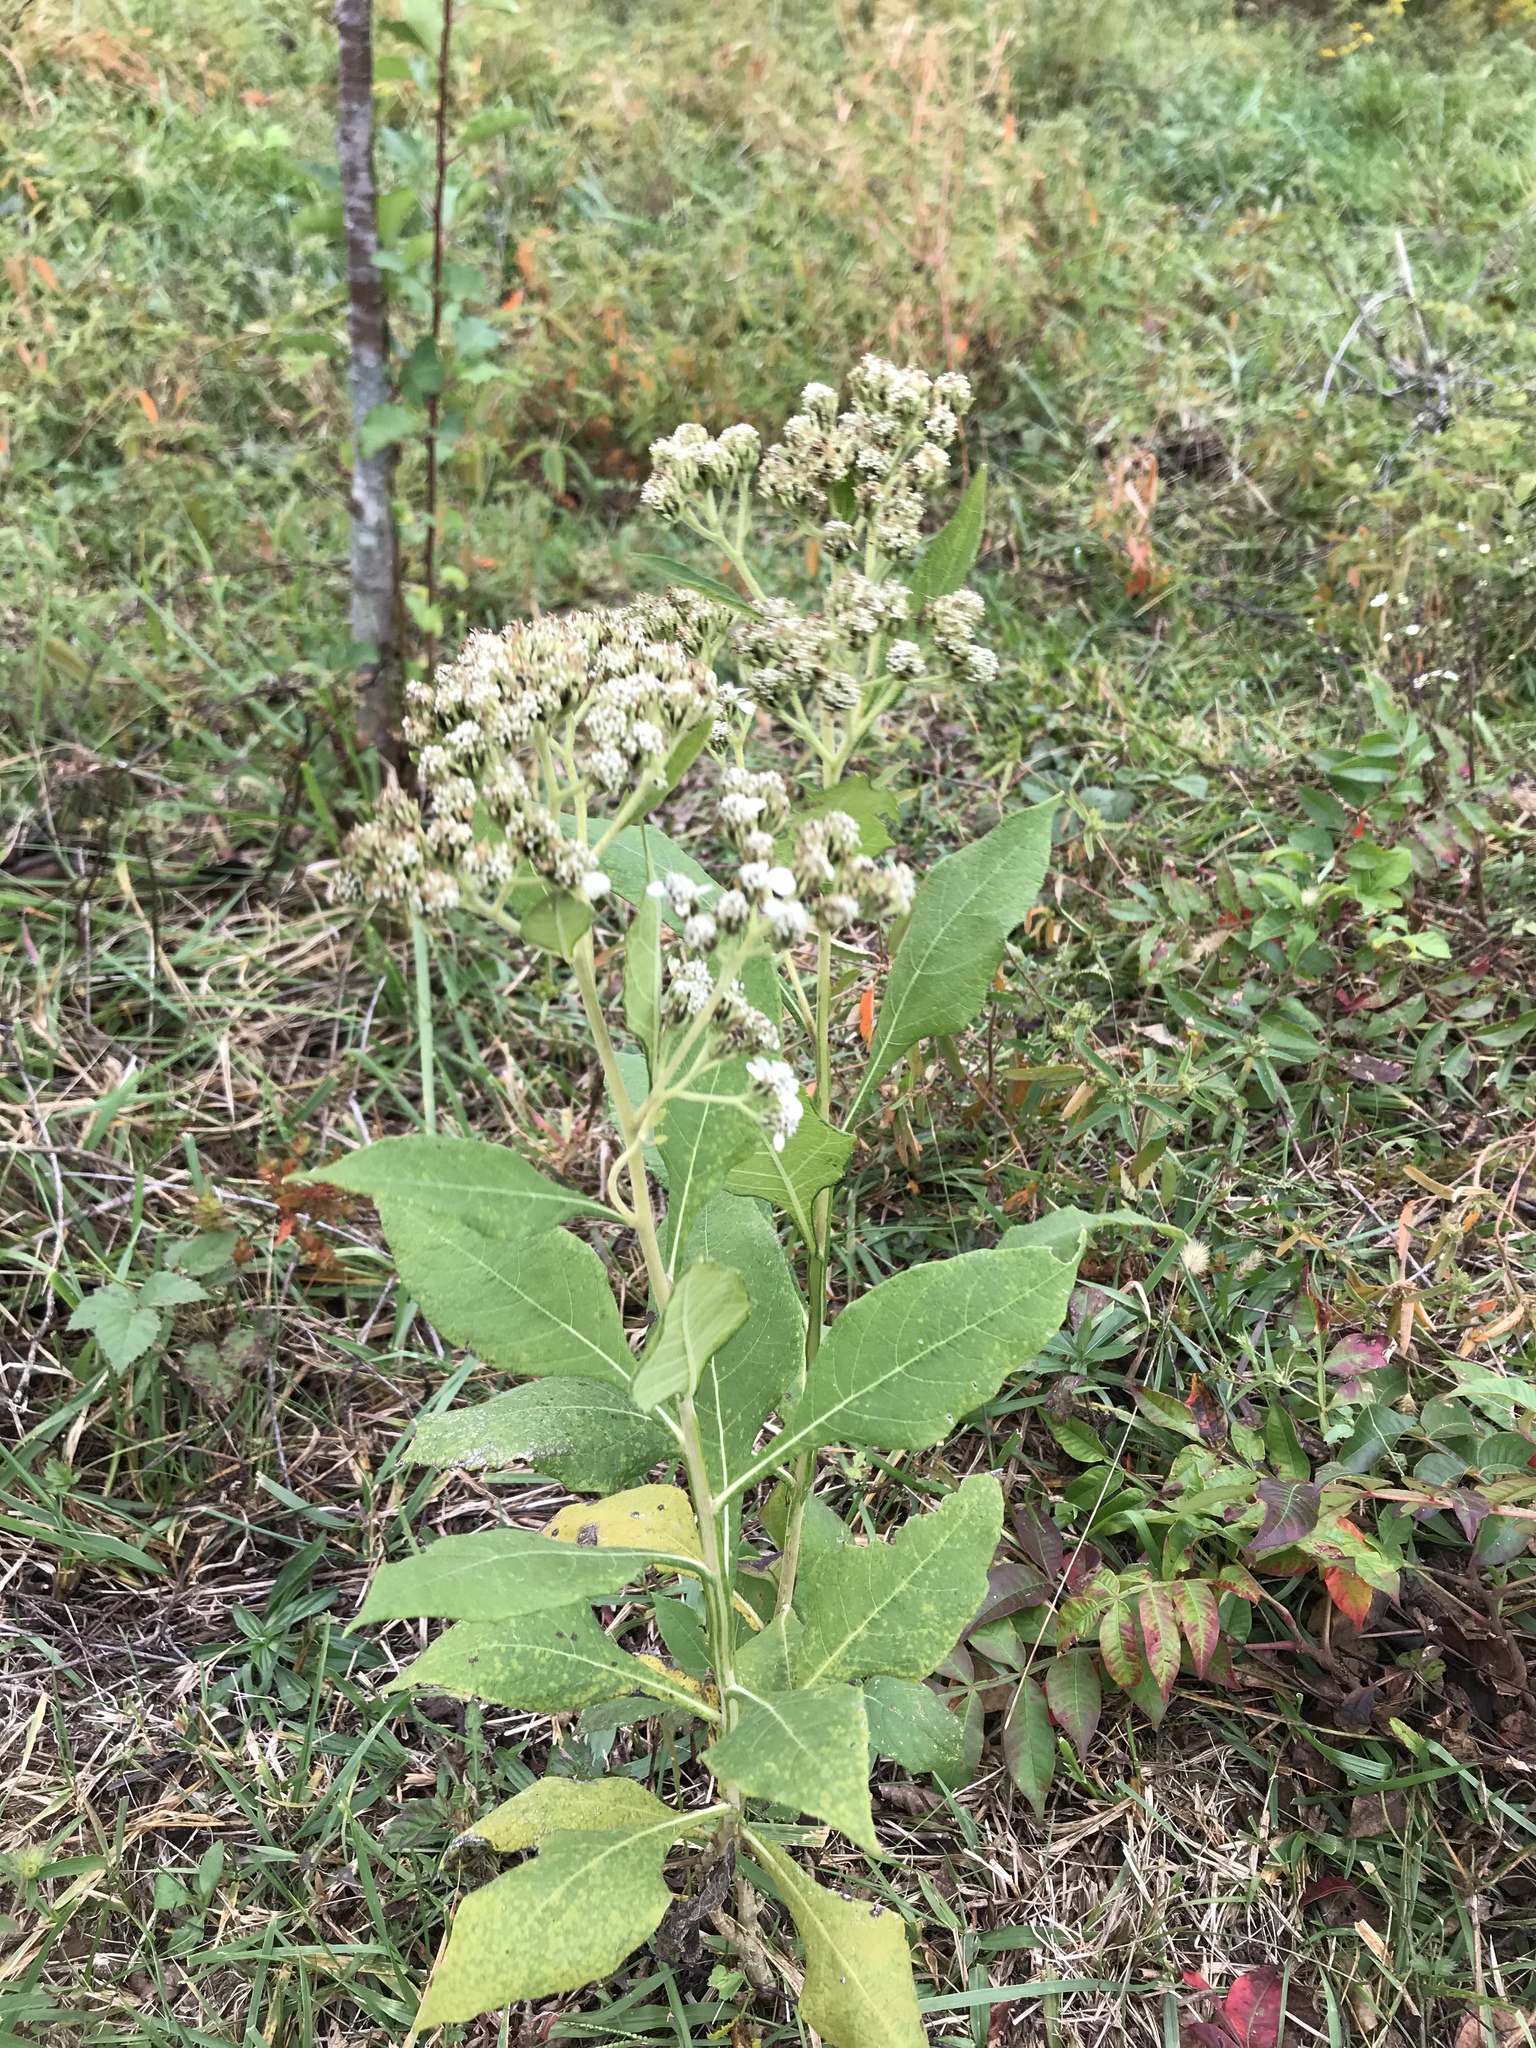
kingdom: Plantae
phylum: Tracheophyta
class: Magnoliopsida
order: Asterales
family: Asteraceae
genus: Verbesina
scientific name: Verbesina virginica
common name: Frostweed
